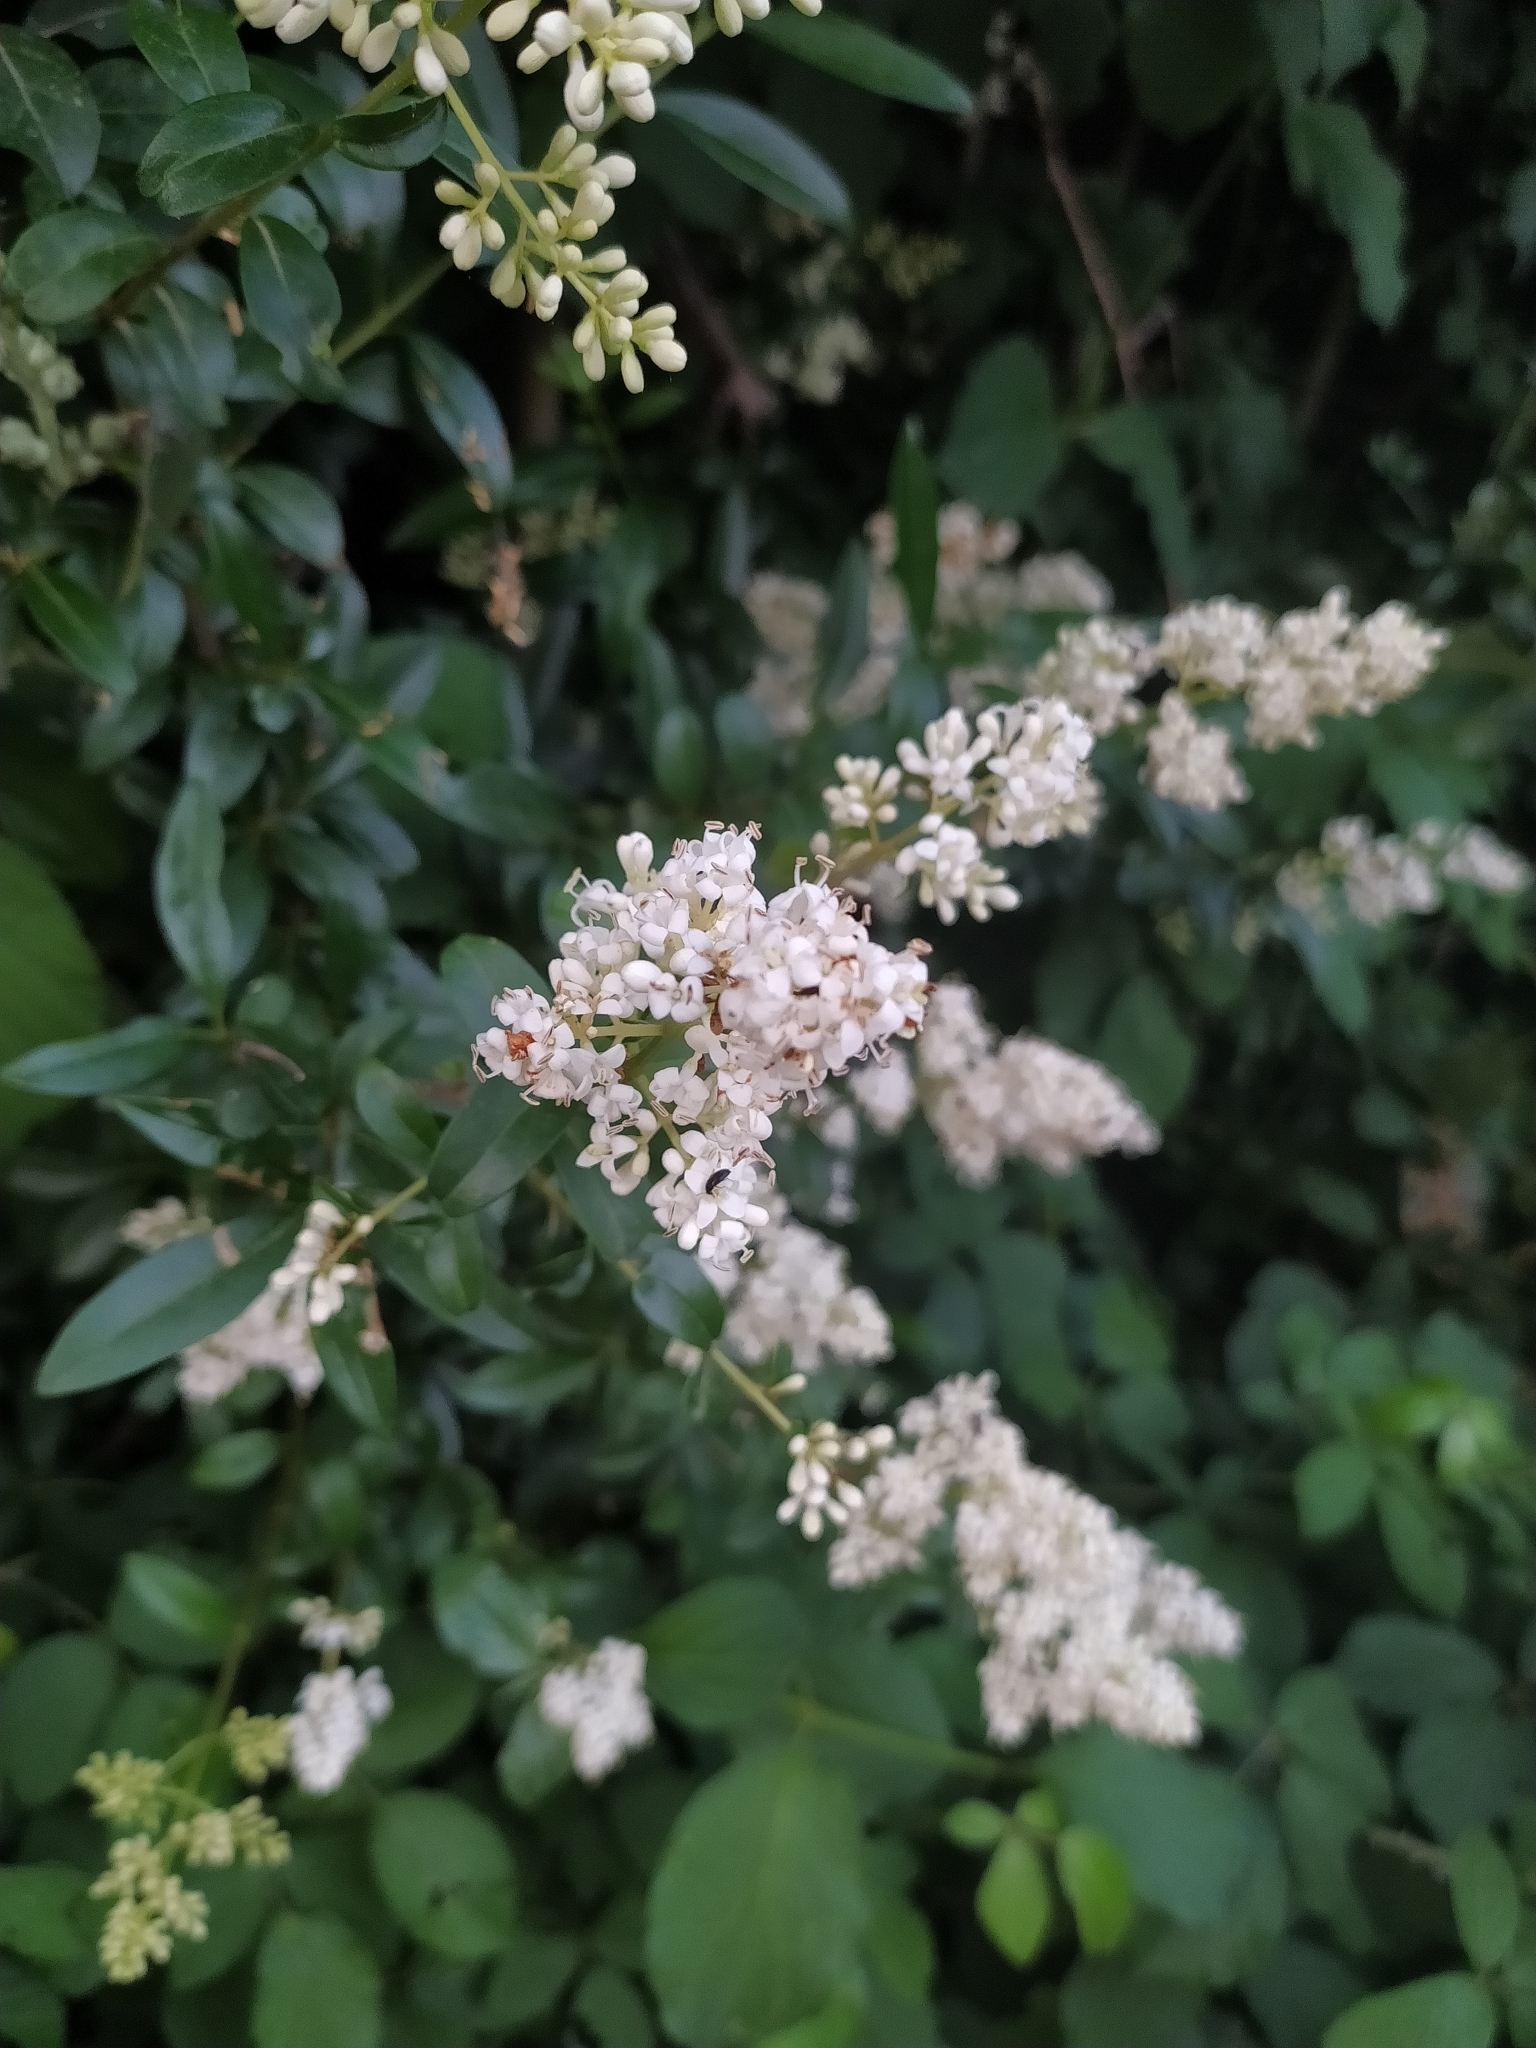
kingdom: Plantae
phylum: Tracheophyta
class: Magnoliopsida
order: Lamiales
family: Oleaceae
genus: Ligustrum
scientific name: Ligustrum vulgare
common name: Wild privet
